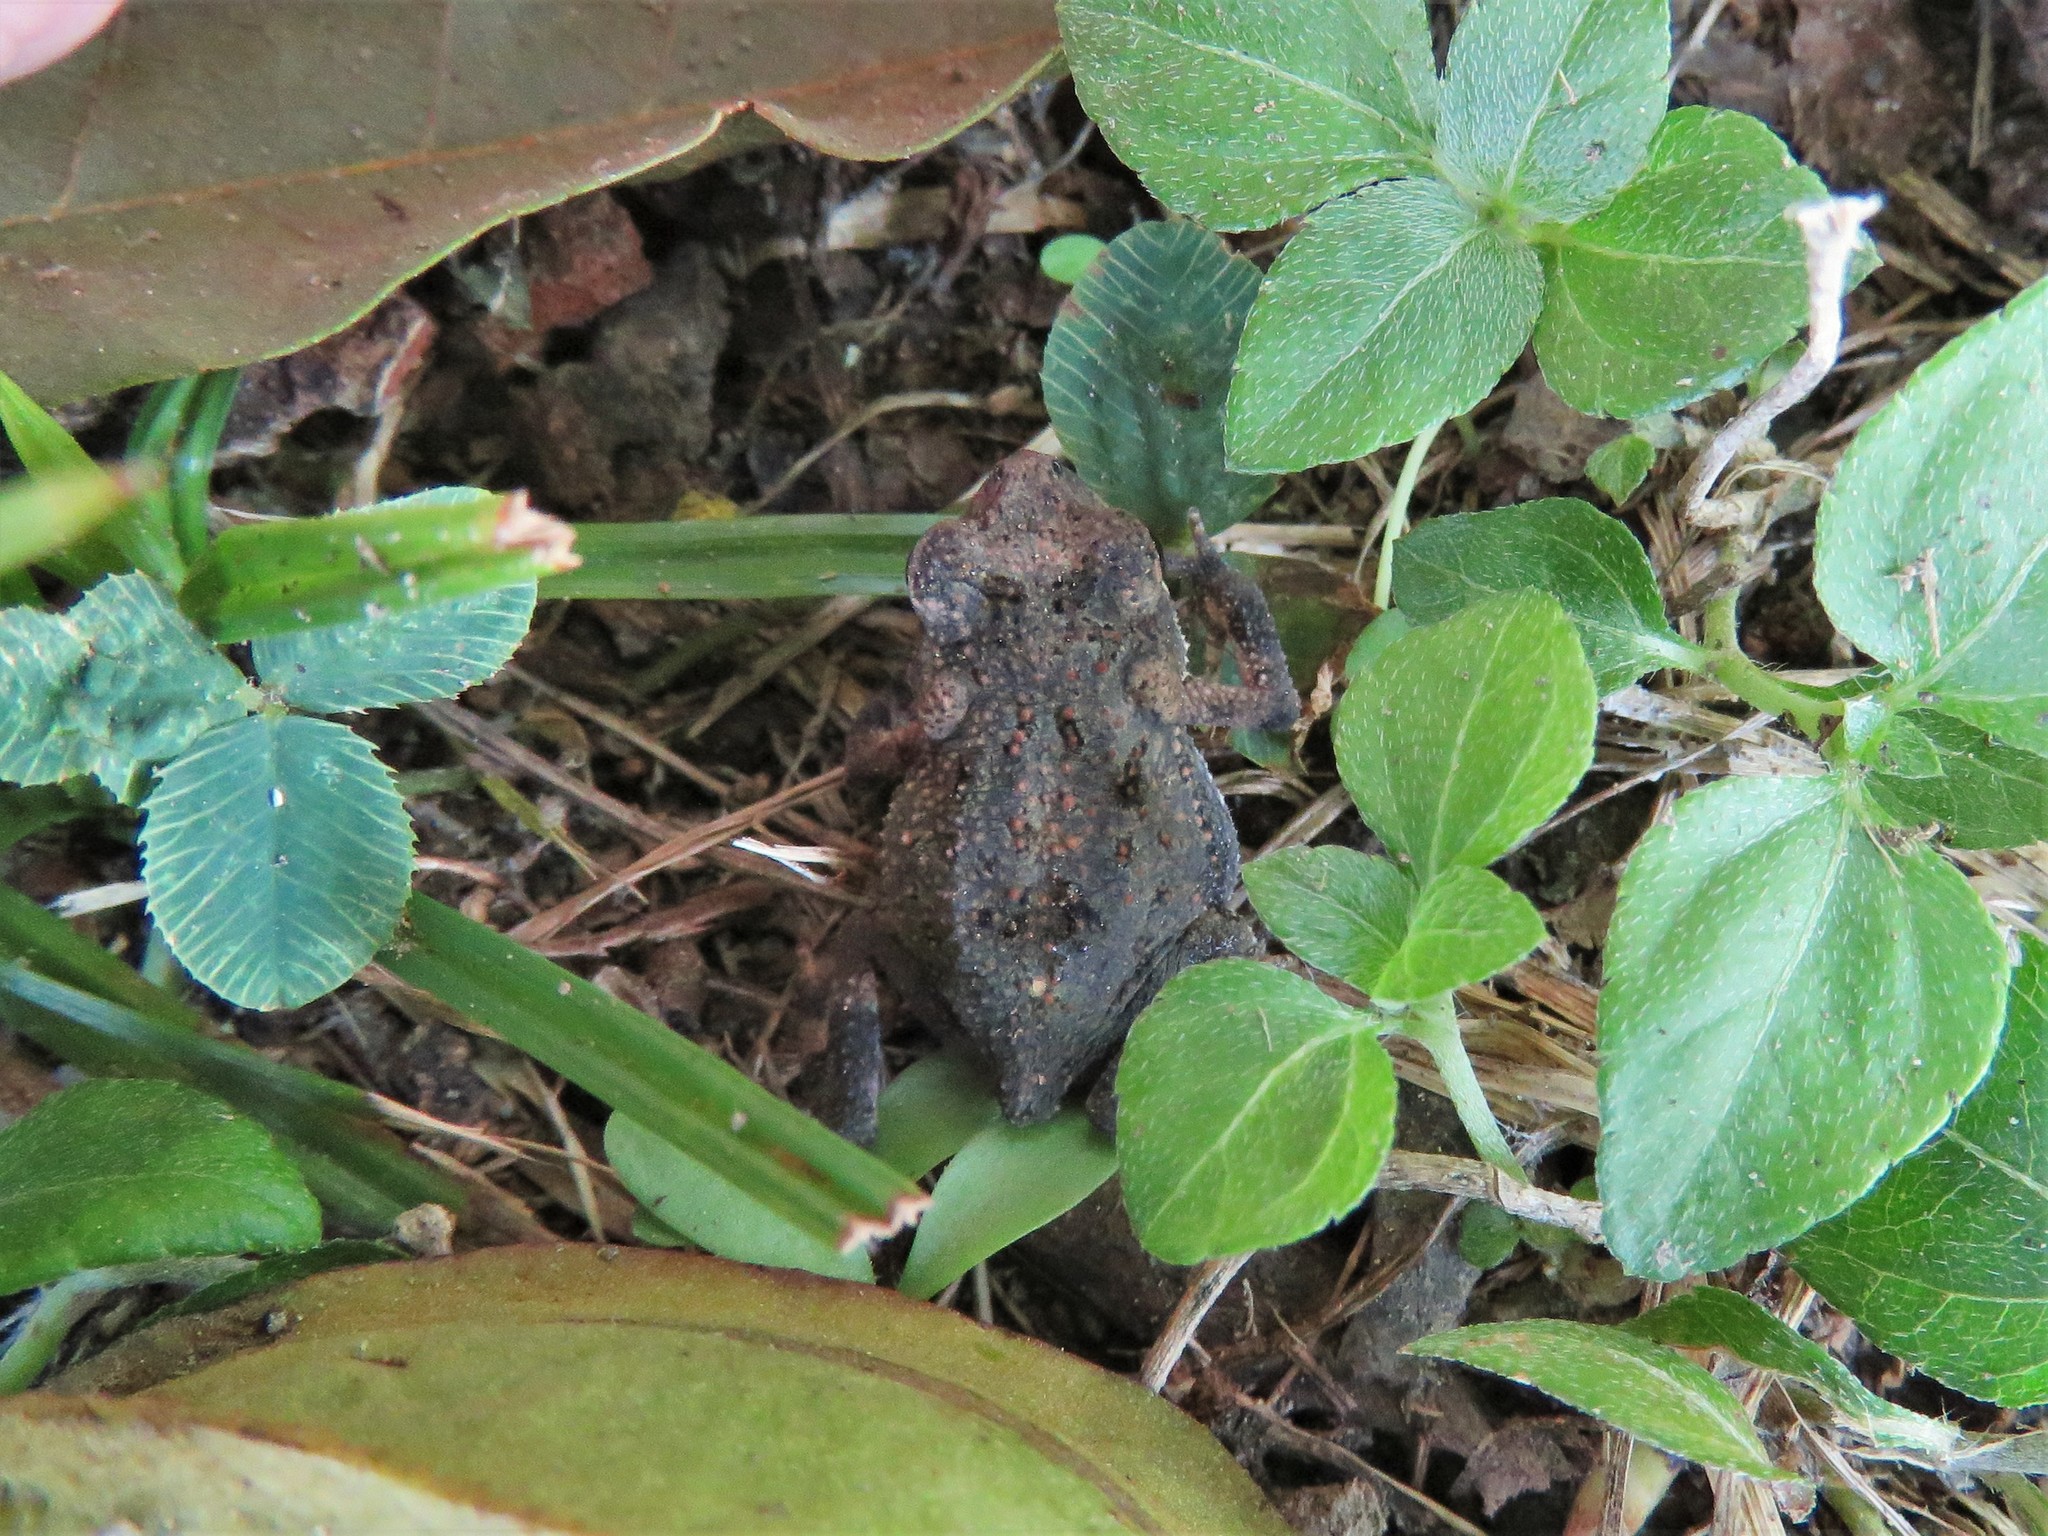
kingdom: Animalia
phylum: Chordata
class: Amphibia
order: Anura
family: Bufonidae
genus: Incilius
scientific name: Incilius nebulifer
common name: Gulf coast toad
